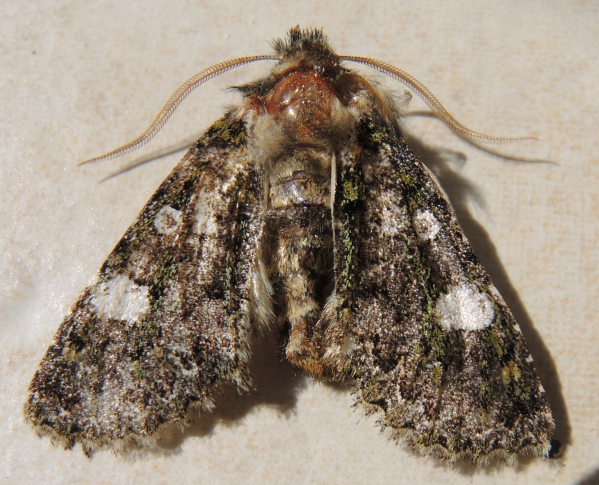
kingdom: Animalia
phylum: Arthropoda
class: Insecta
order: Lepidoptera
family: Noctuidae
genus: Valeria
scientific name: Valeria oleagina
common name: Green-brindled dot
